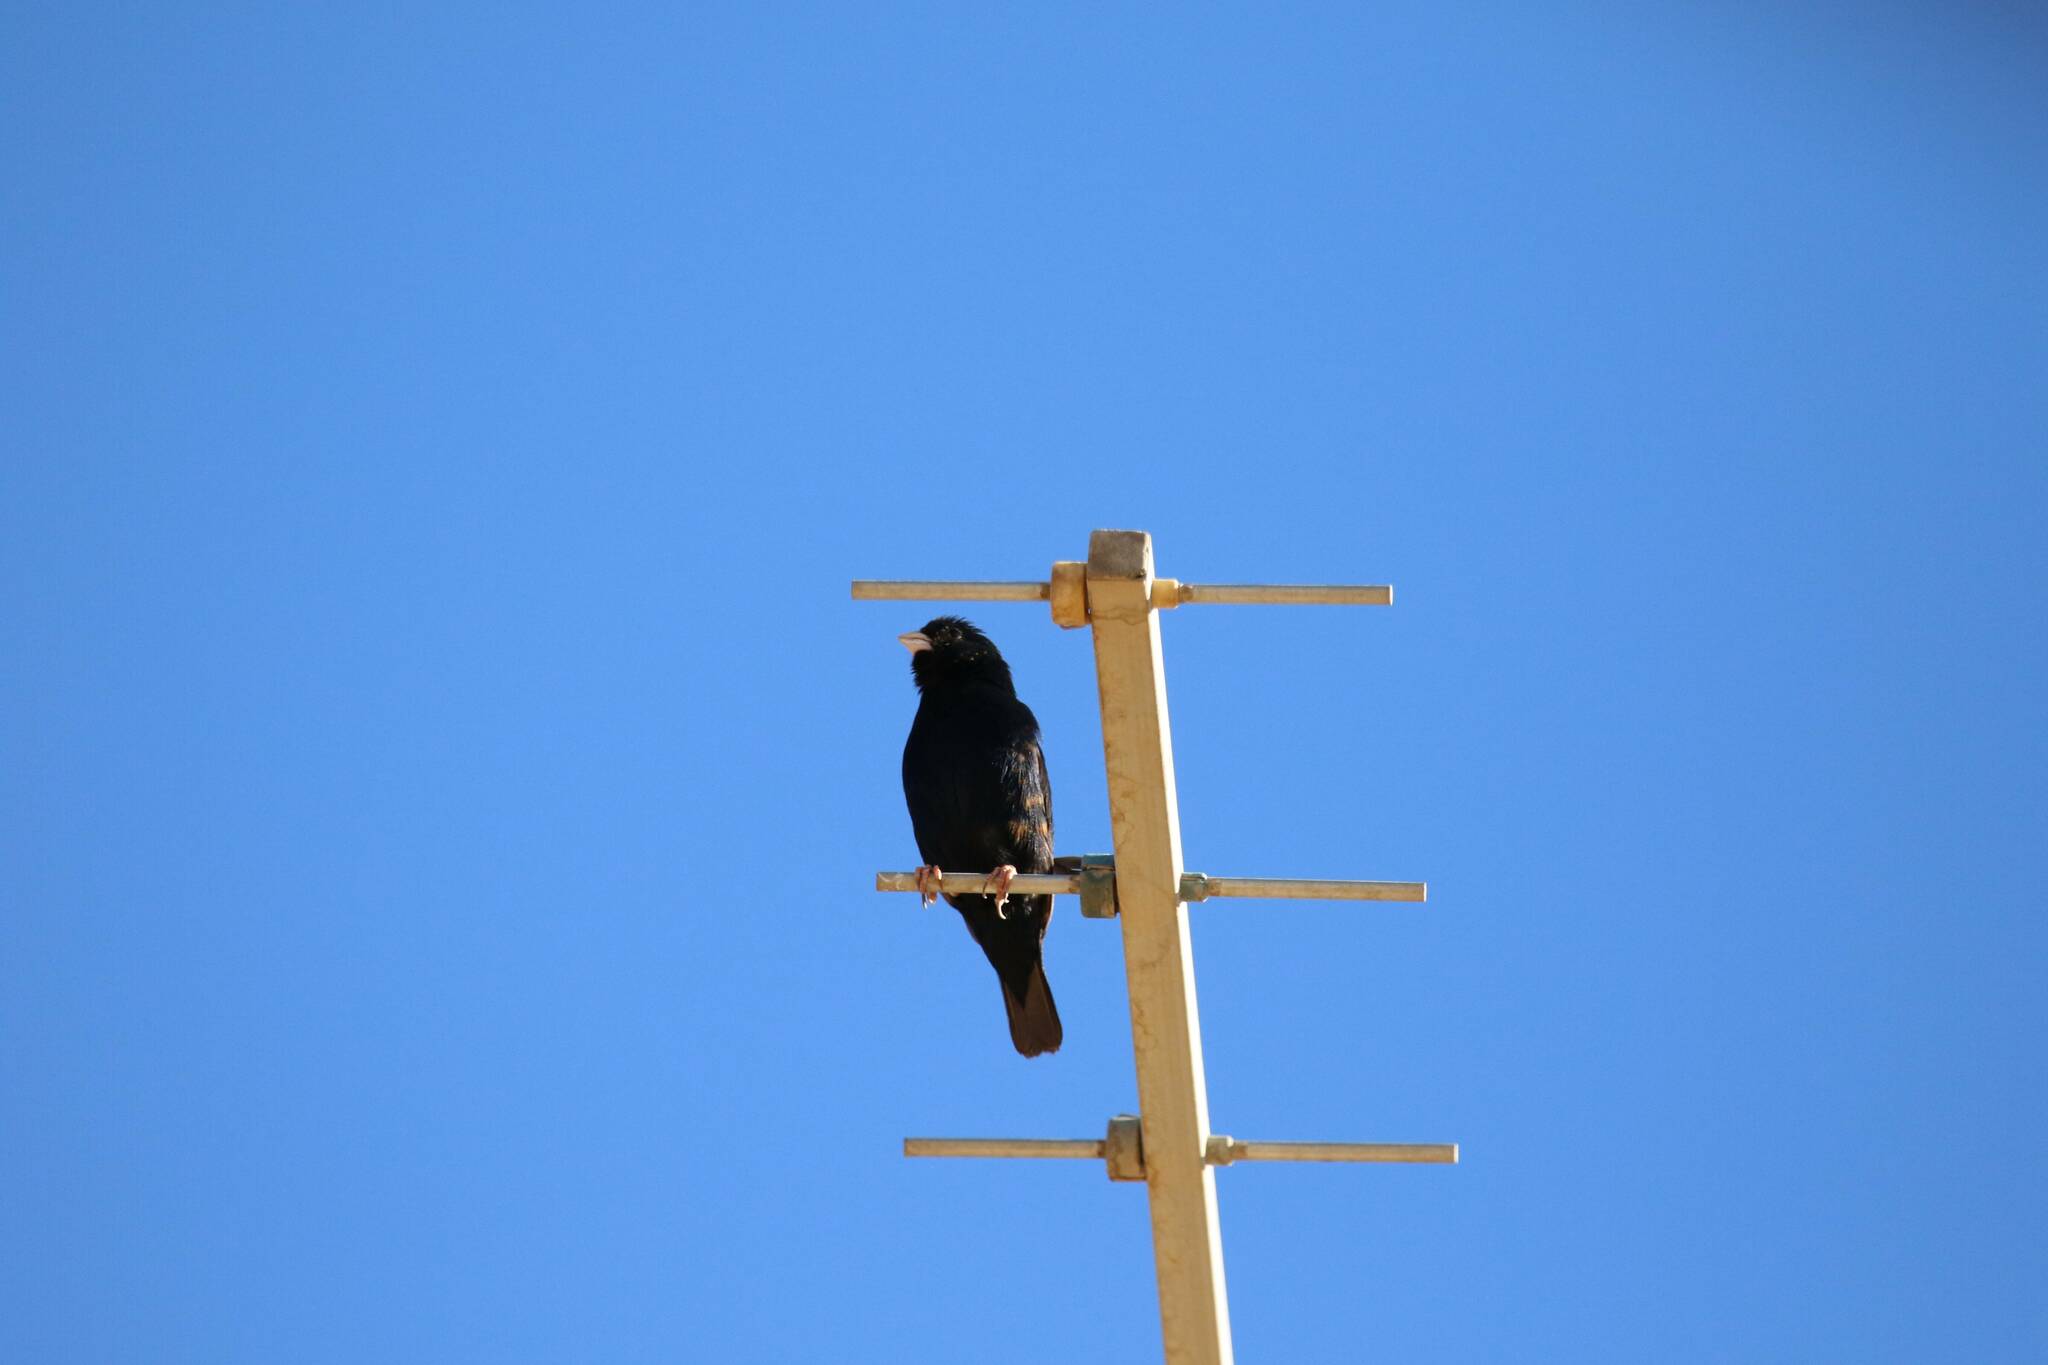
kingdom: Animalia
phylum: Chordata
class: Aves
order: Passeriformes
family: Viduidae
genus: Vidua
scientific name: Vidua chalybeata
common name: Village indigobird
